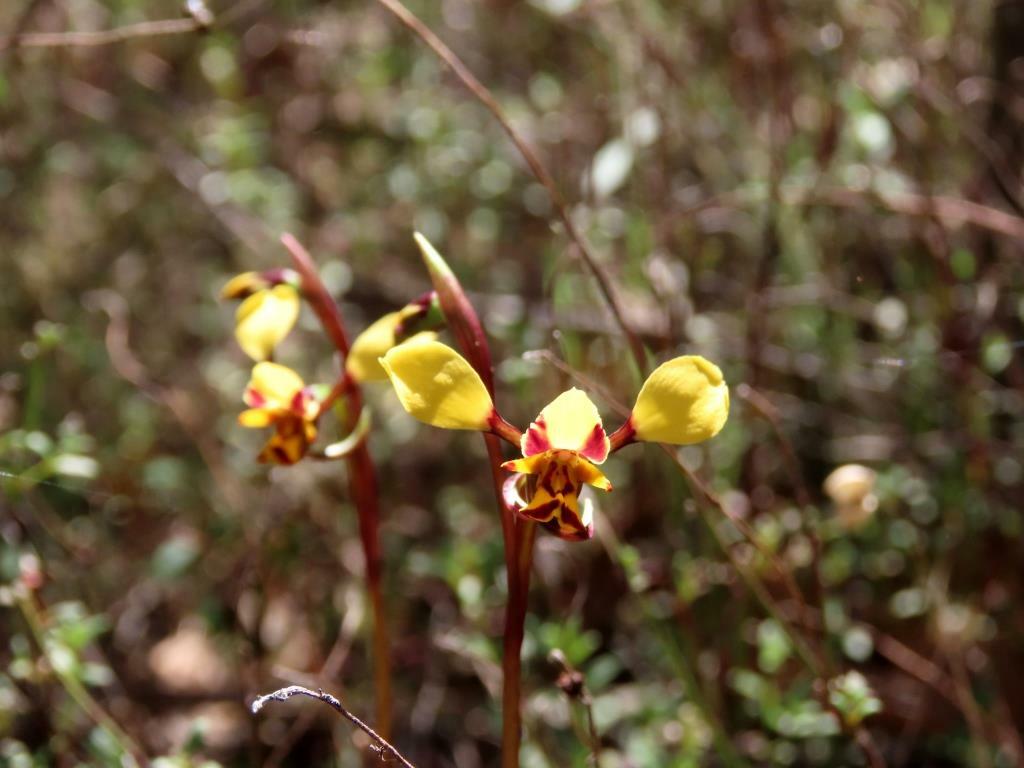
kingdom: Plantae
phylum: Tracheophyta
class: Liliopsida
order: Asparagales
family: Orchidaceae
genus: Diuris
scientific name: Diuris pardina
